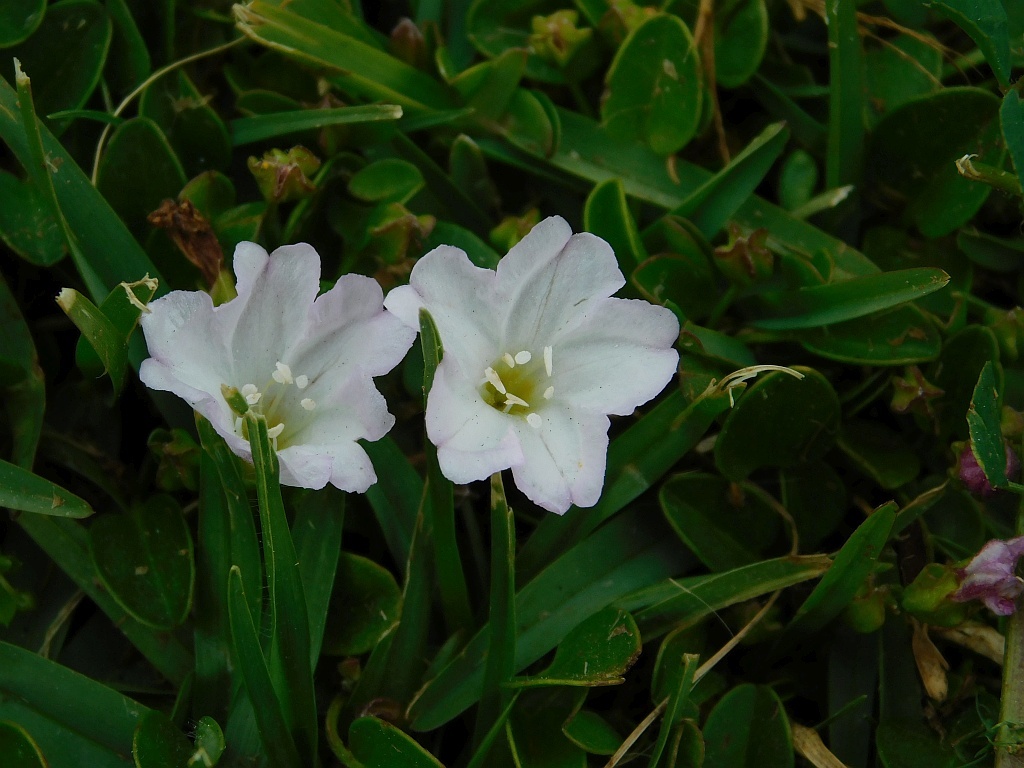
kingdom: Plantae
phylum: Tracheophyta
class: Magnoliopsida
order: Solanales
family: Convolvulaceae
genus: Falkia
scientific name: Falkia repens
